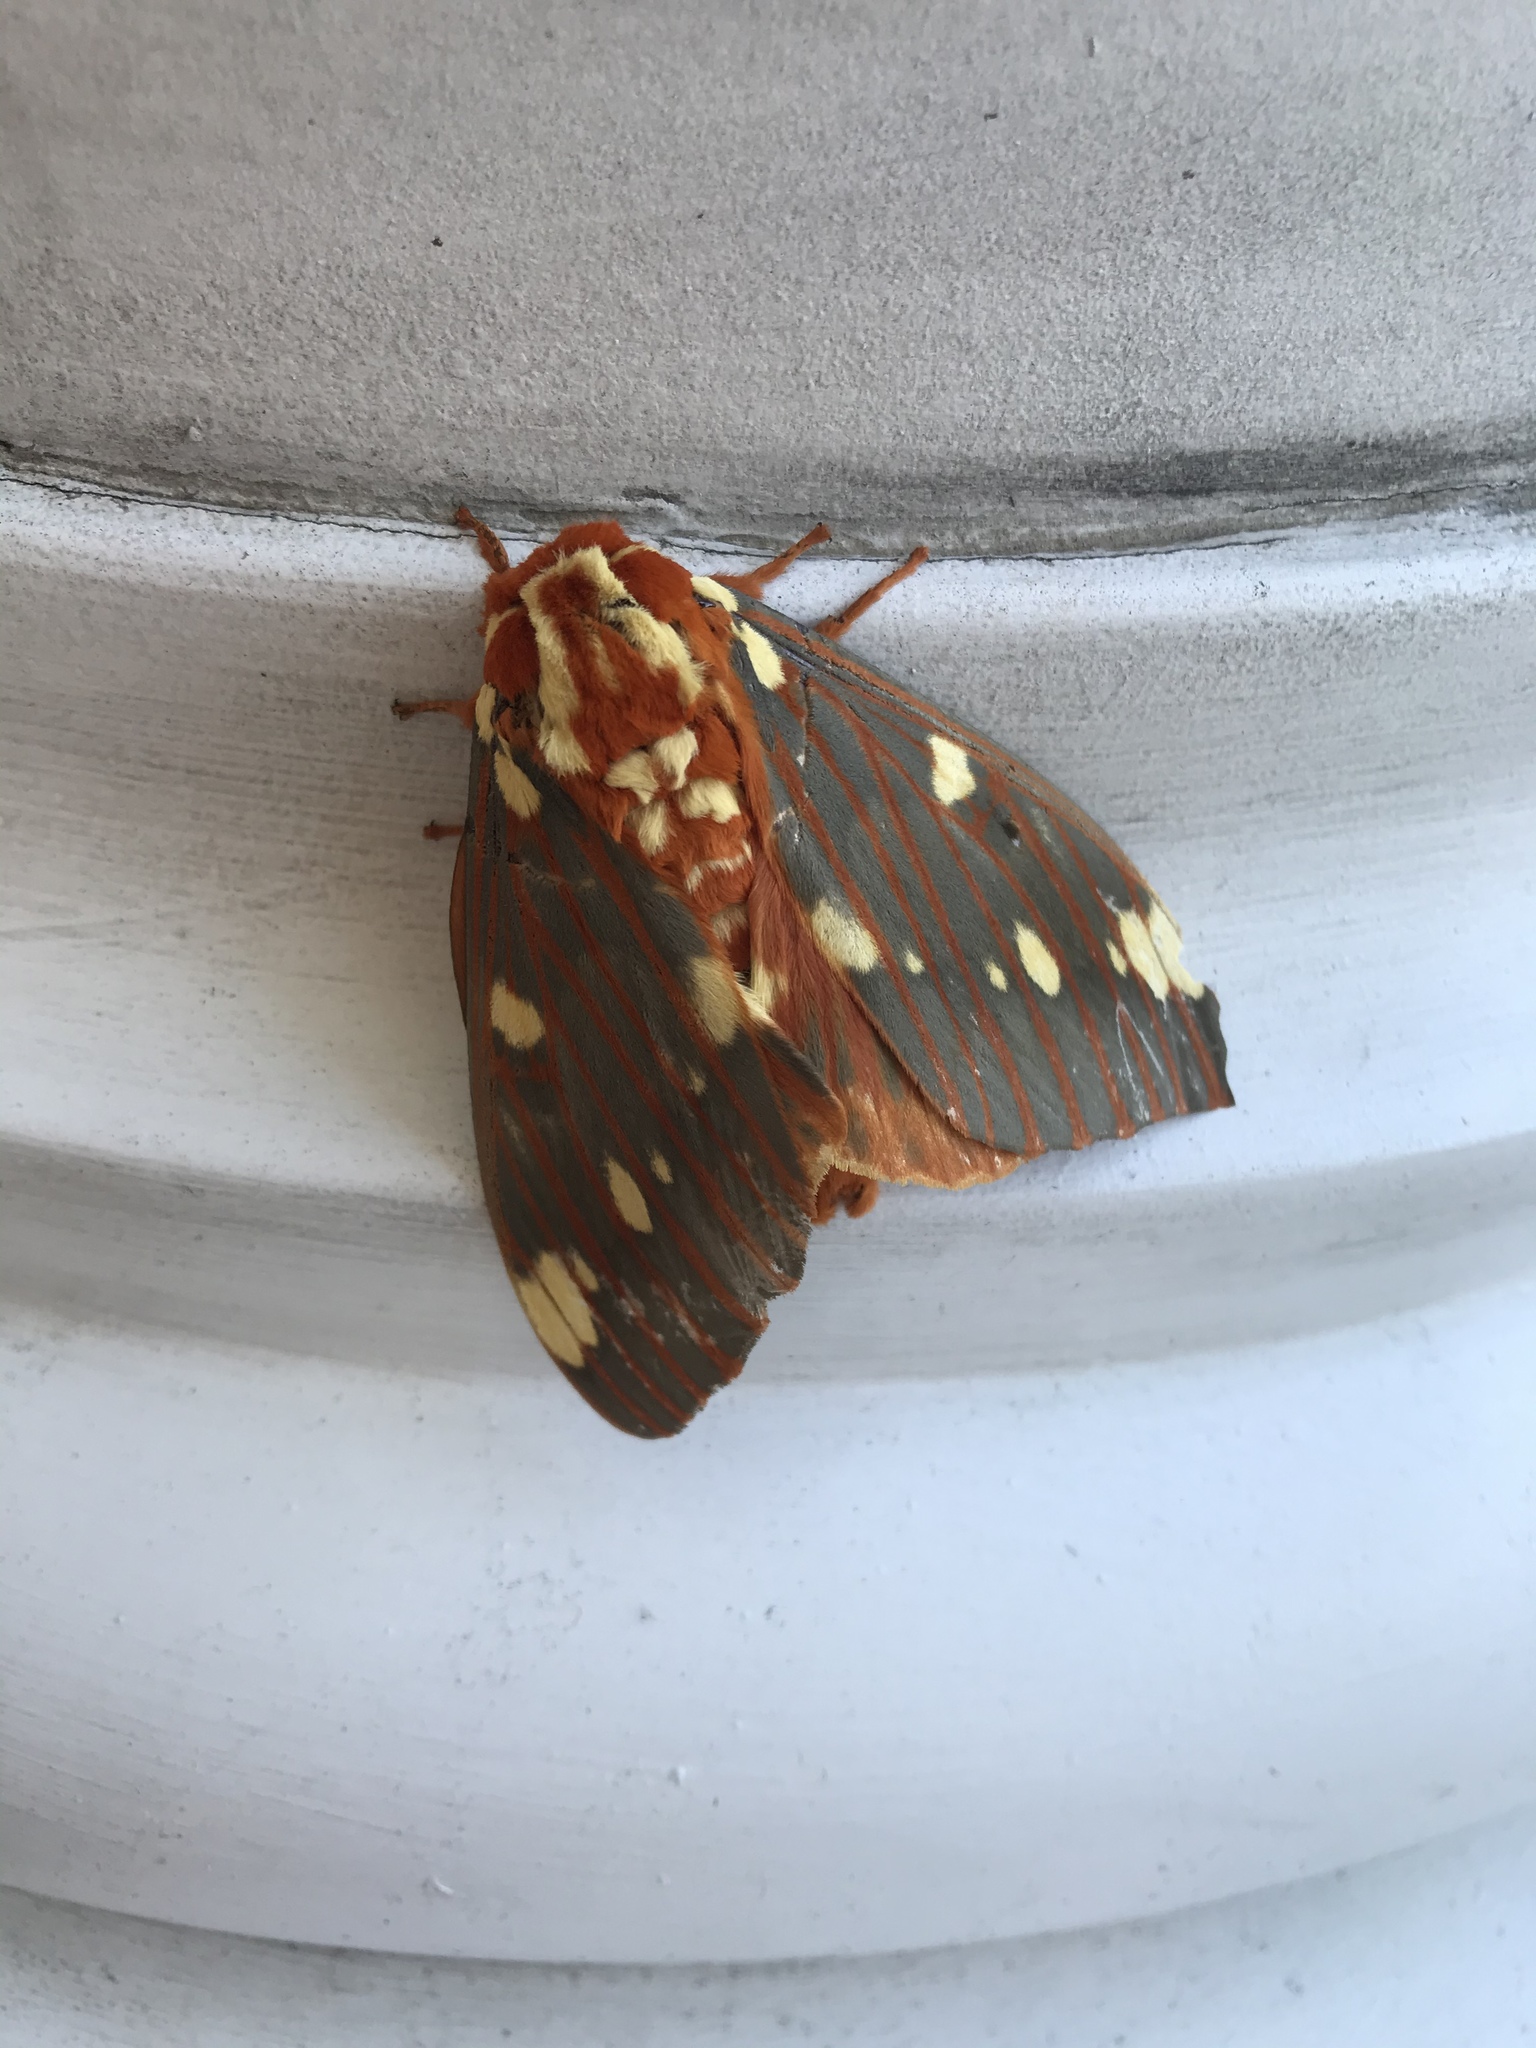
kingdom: Animalia
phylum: Arthropoda
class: Insecta
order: Lepidoptera
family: Saturniidae
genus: Citheronia
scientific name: Citheronia regalis
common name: Hickory horned devil
